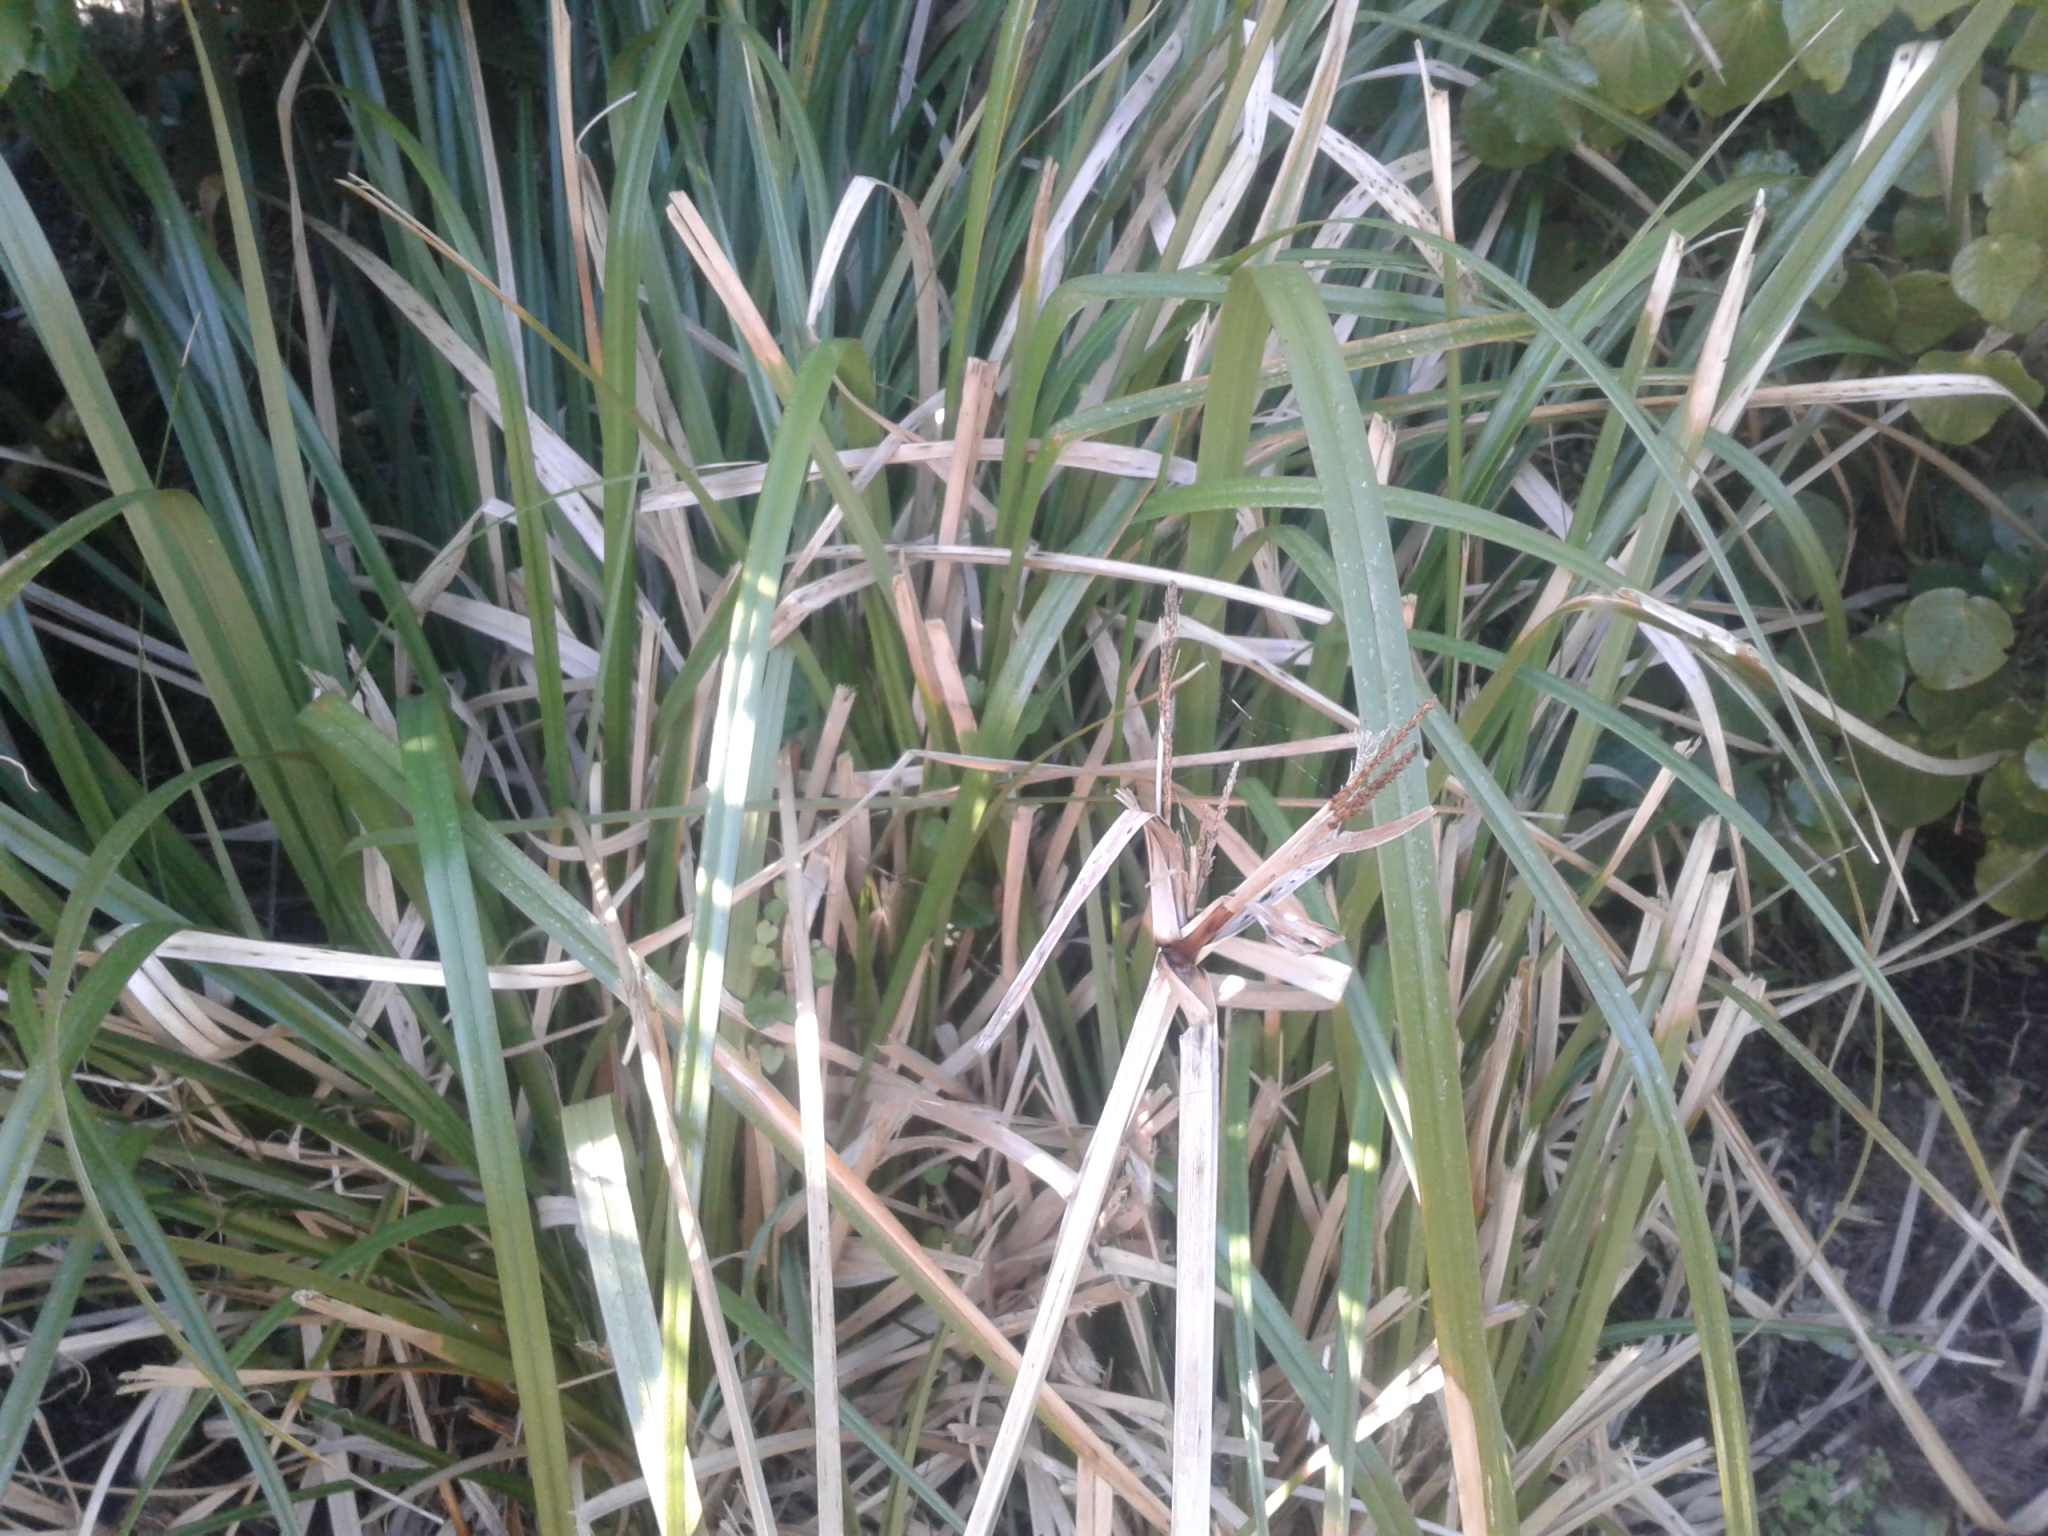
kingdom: Plantae
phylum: Tracheophyta
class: Liliopsida
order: Poales
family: Cyperaceae
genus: Cyperus
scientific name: Cyperus ustulatus
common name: Giant umbrella-sedge
